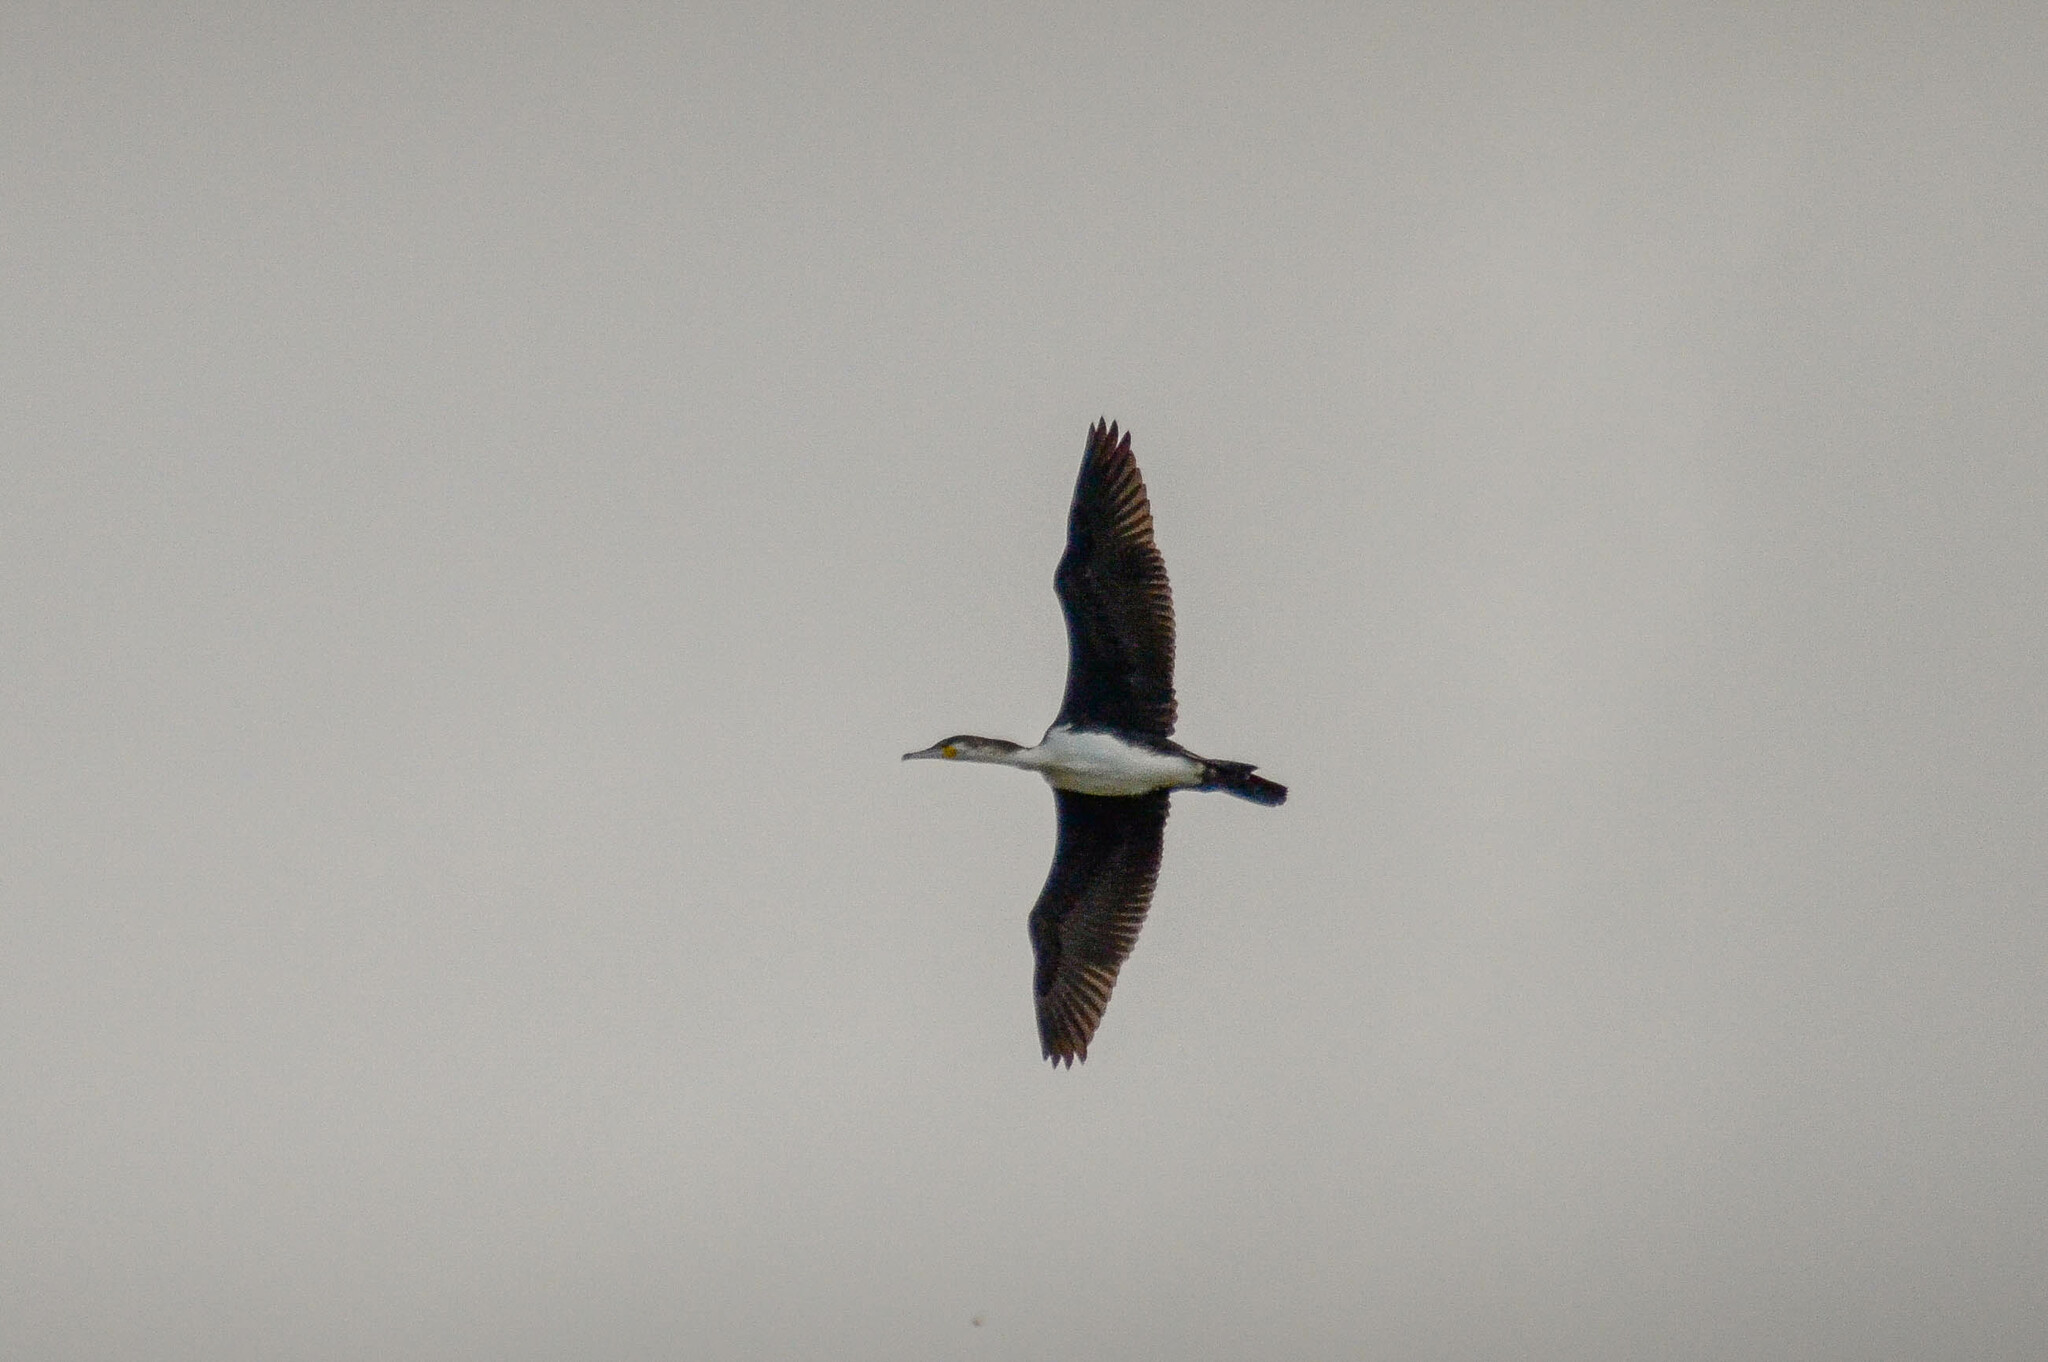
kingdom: Animalia
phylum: Chordata
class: Aves
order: Suliformes
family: Phalacrocoracidae
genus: Phalacrocorax
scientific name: Phalacrocorax carbo
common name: Great cormorant
